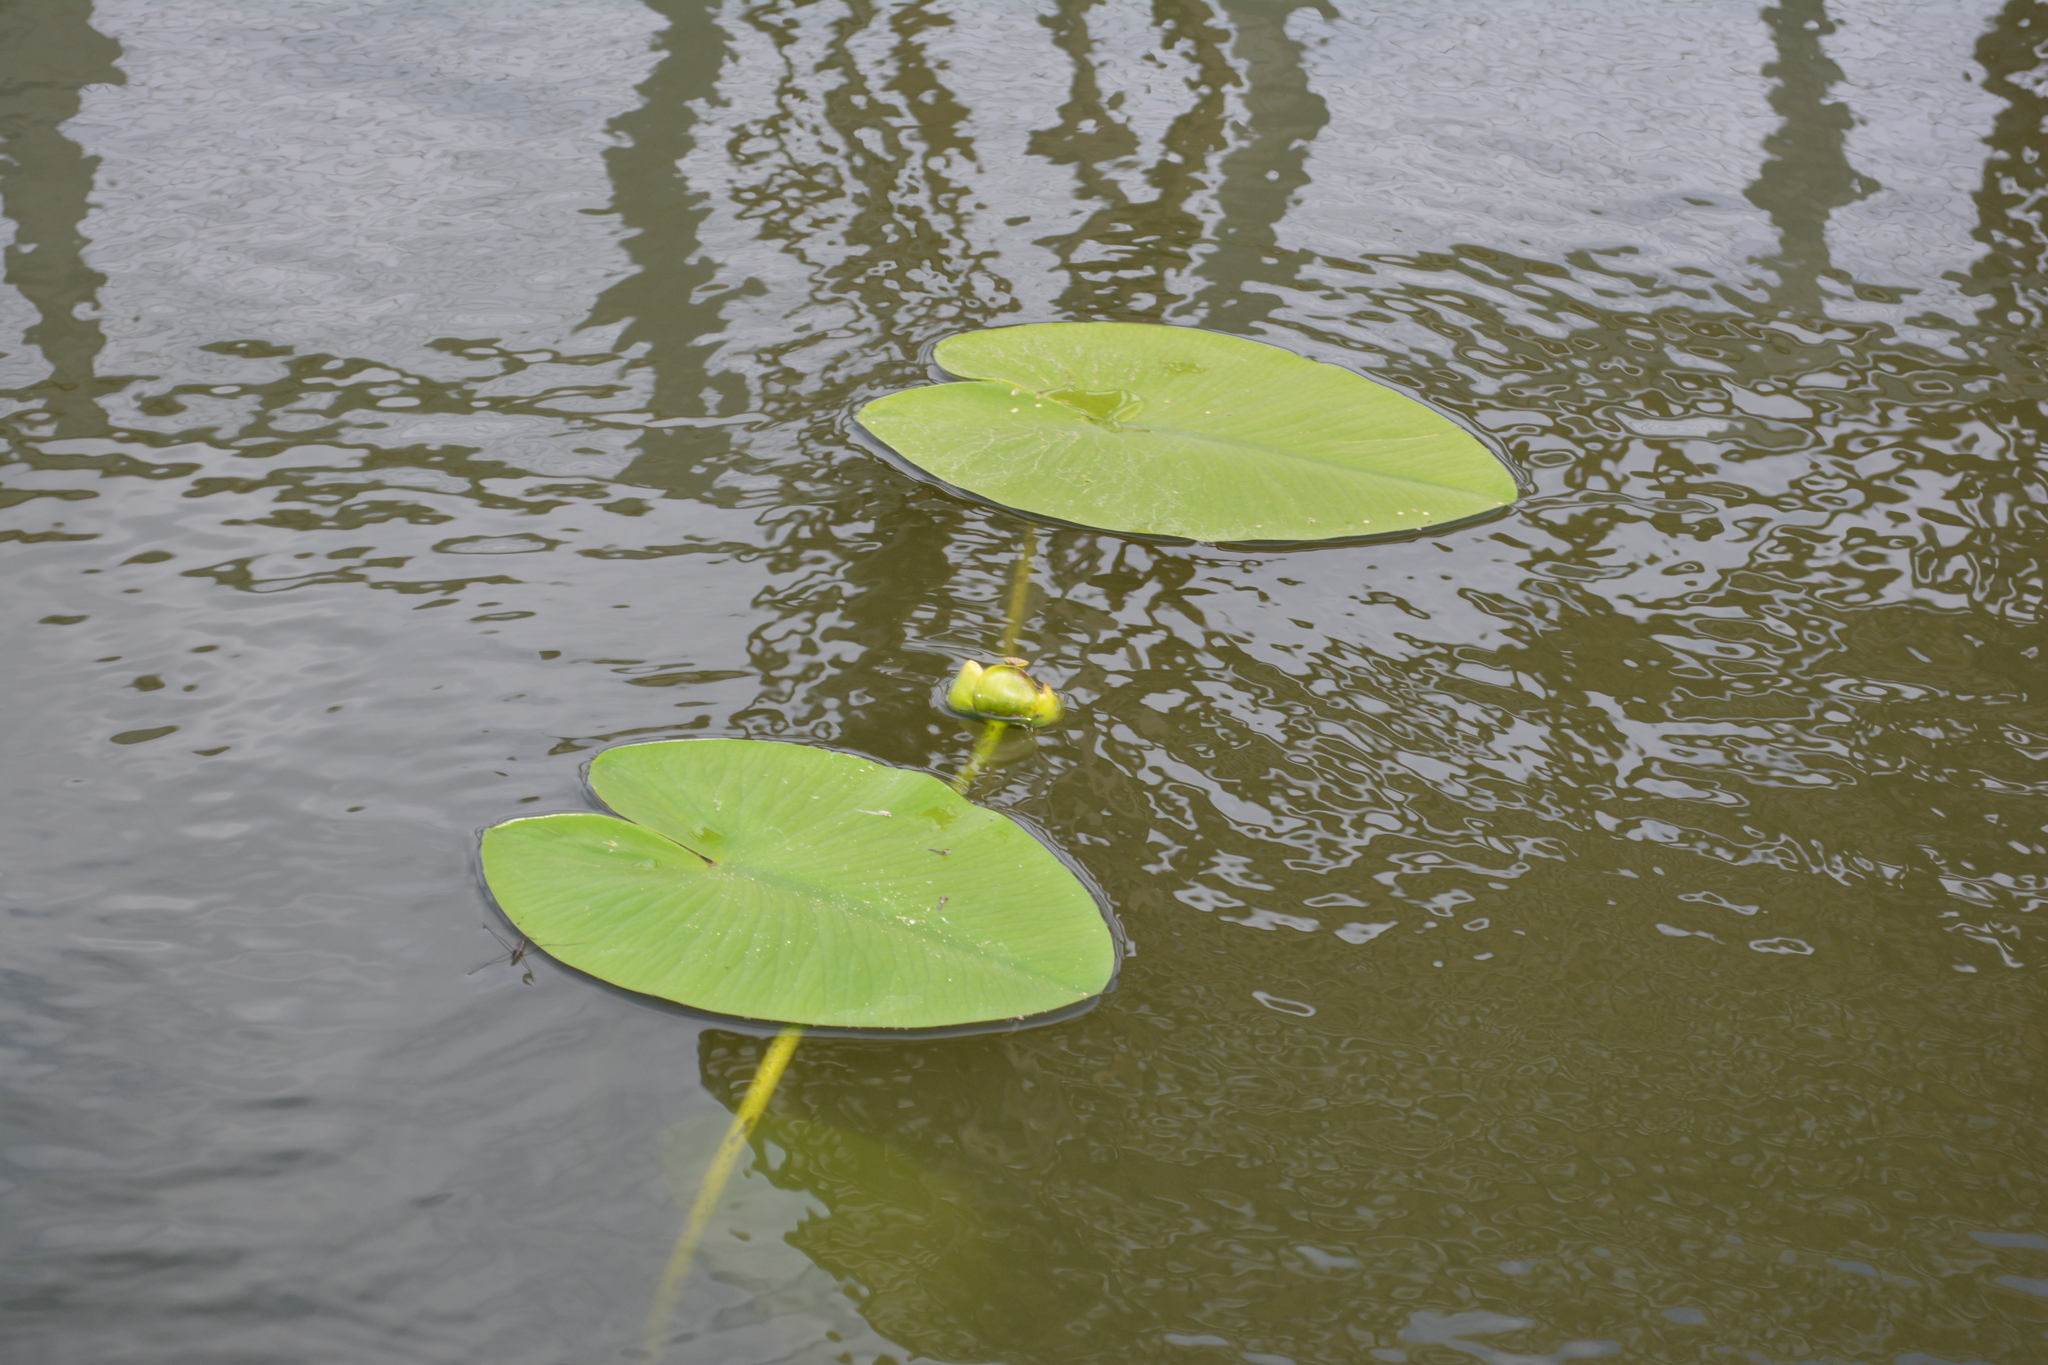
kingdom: Plantae
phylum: Tracheophyta
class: Magnoliopsida
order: Nymphaeales
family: Nymphaeaceae
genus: Nuphar
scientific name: Nuphar lutea
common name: Yellow water-lily
